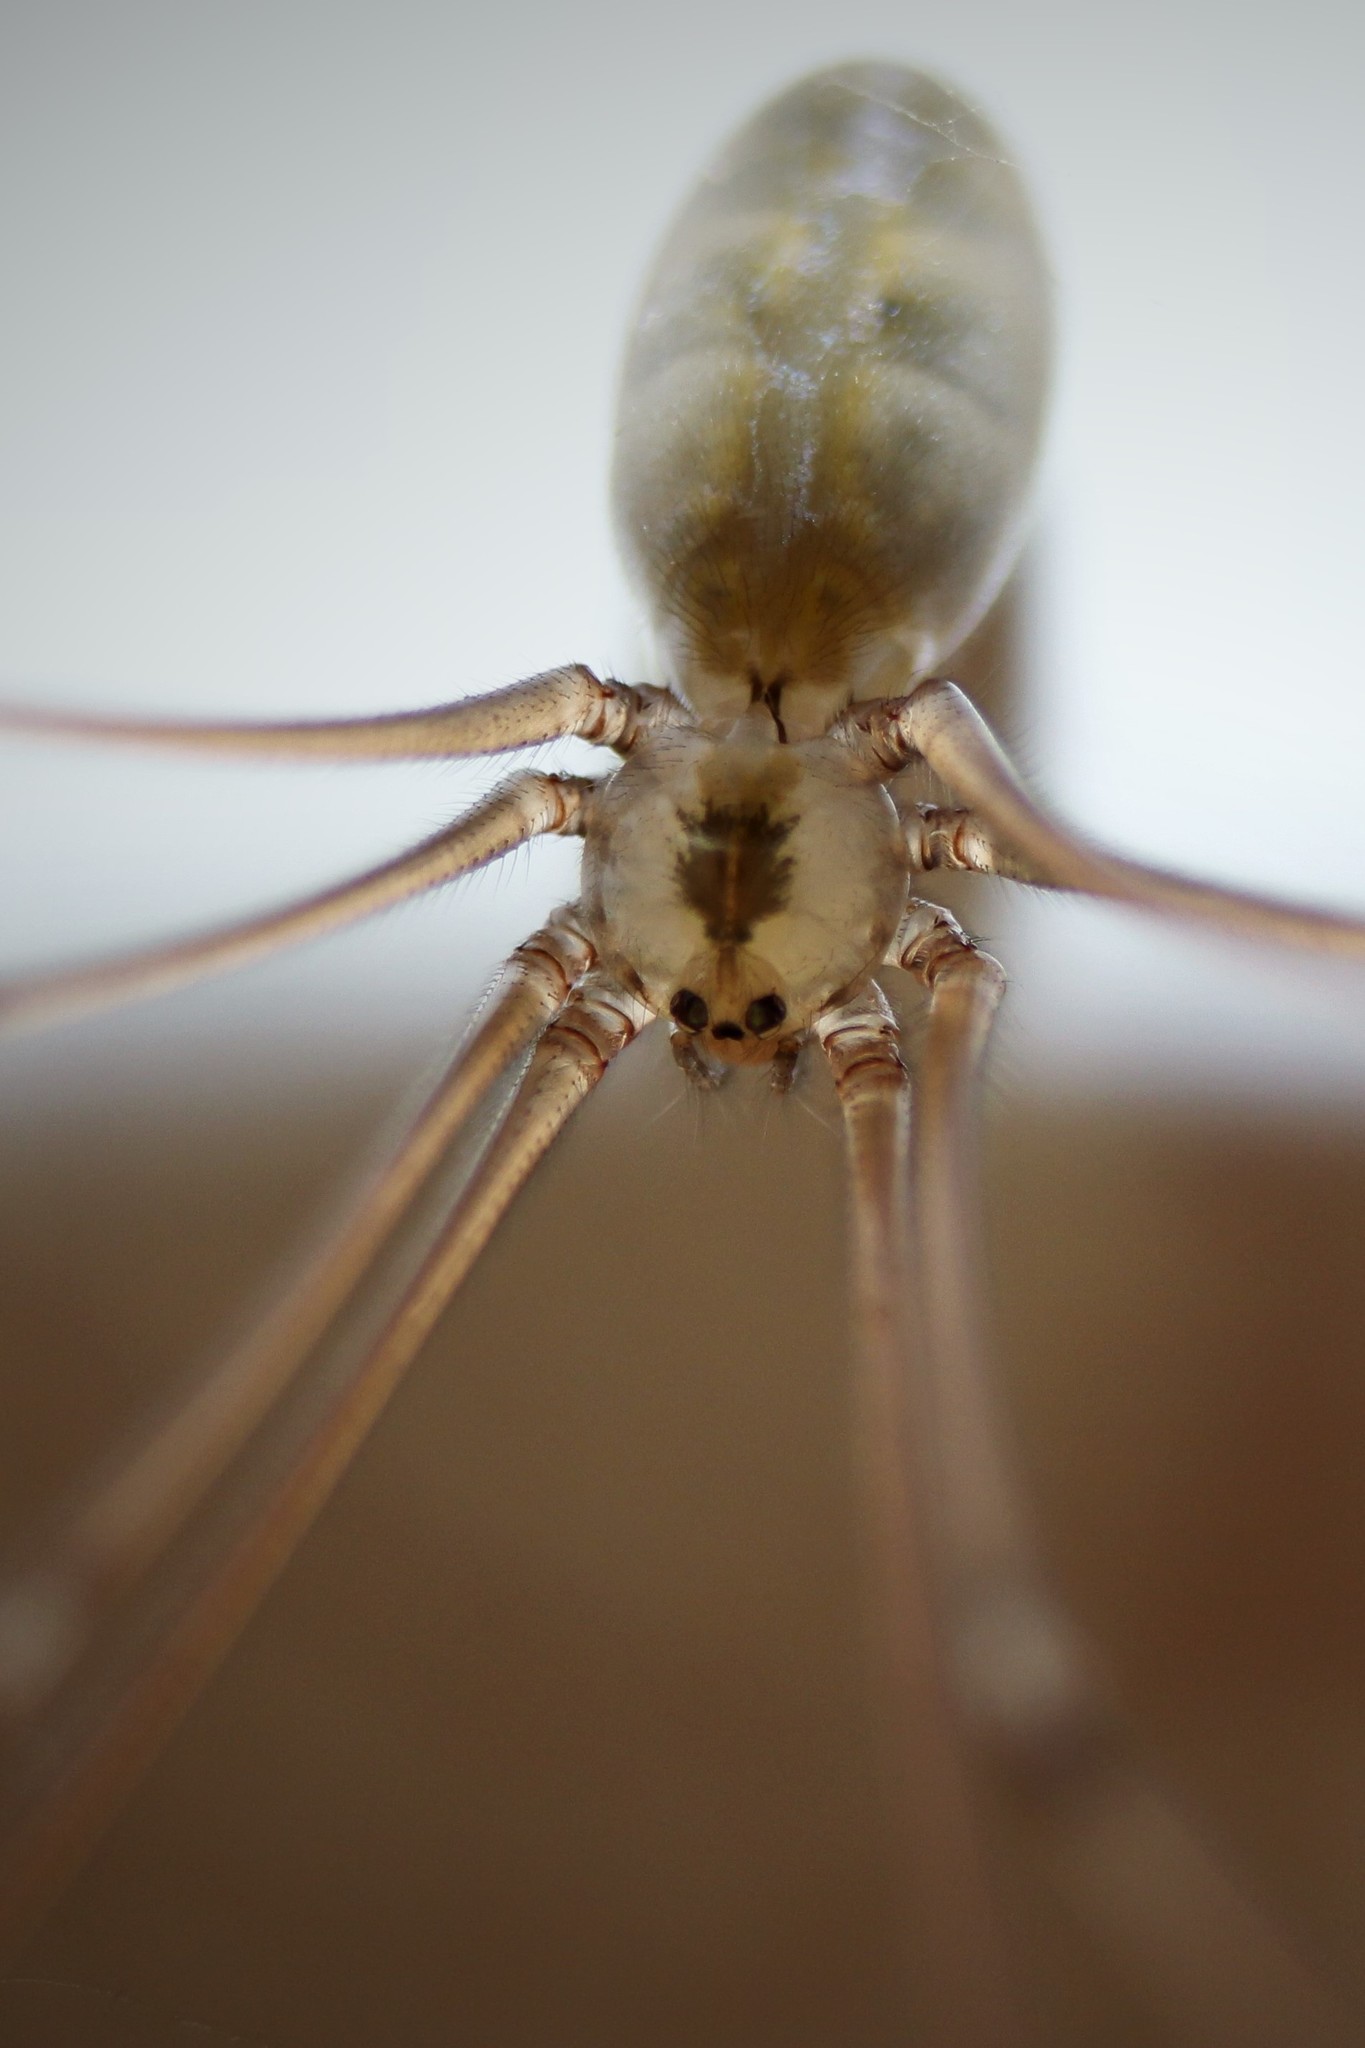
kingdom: Animalia
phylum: Arthropoda
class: Arachnida
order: Araneae
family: Pholcidae
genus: Pholcus
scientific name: Pholcus phalangioides
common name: Longbodied cellar spider
